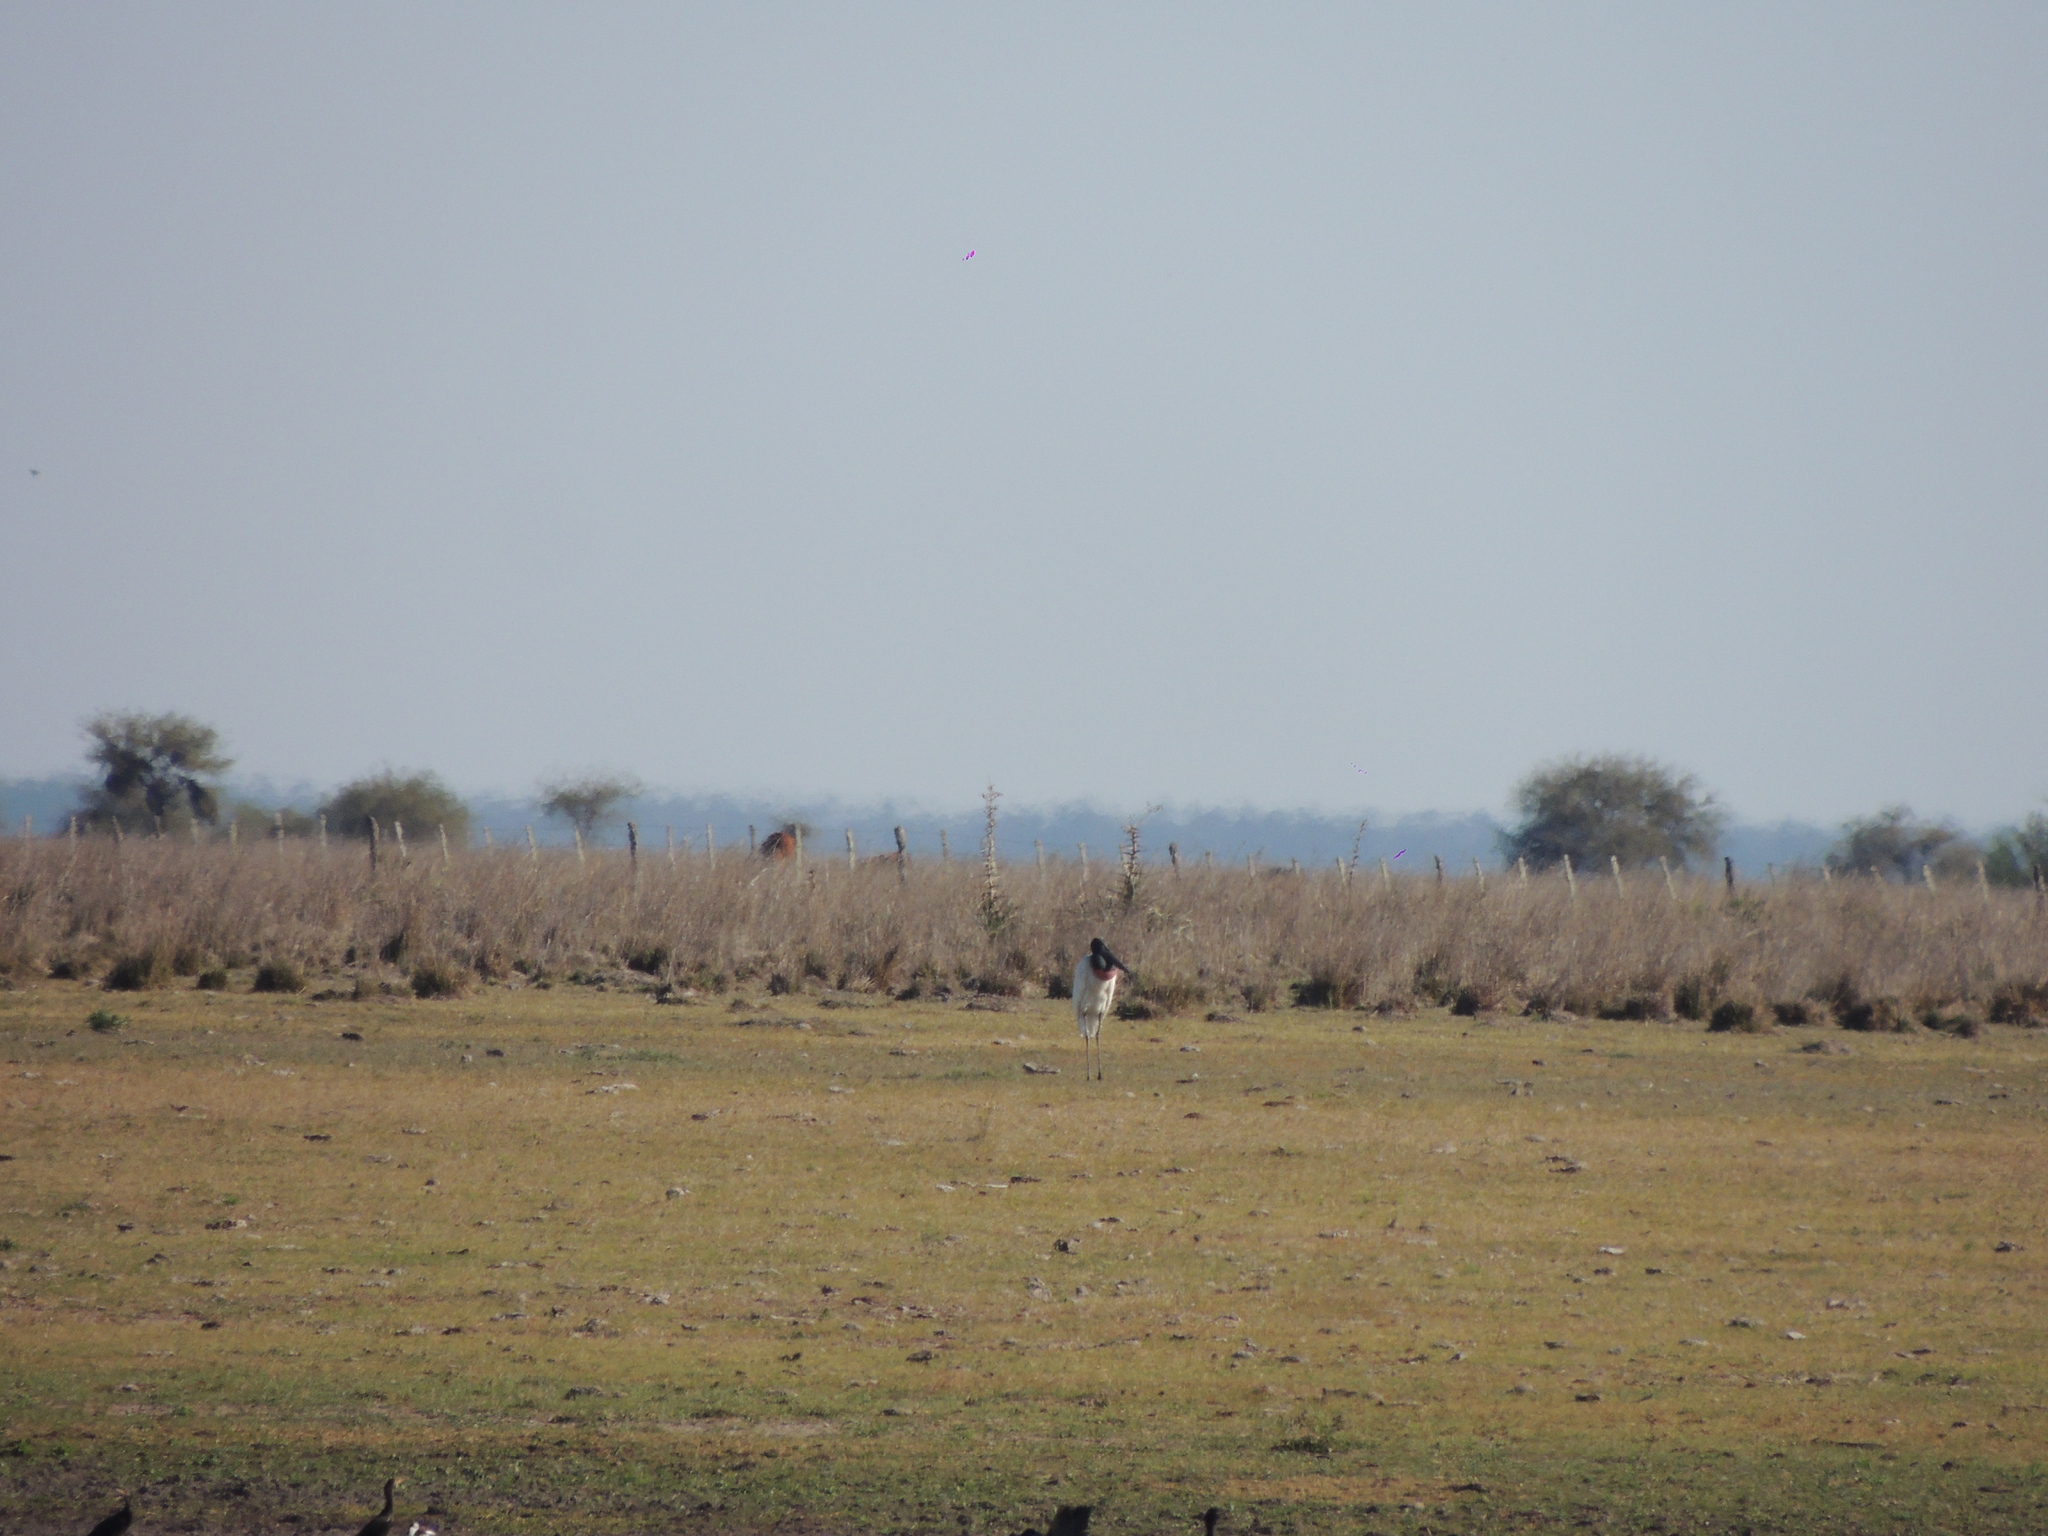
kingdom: Animalia
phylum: Chordata
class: Aves
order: Ciconiiformes
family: Ciconiidae
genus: Jabiru
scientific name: Jabiru mycteria
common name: Jabiru
